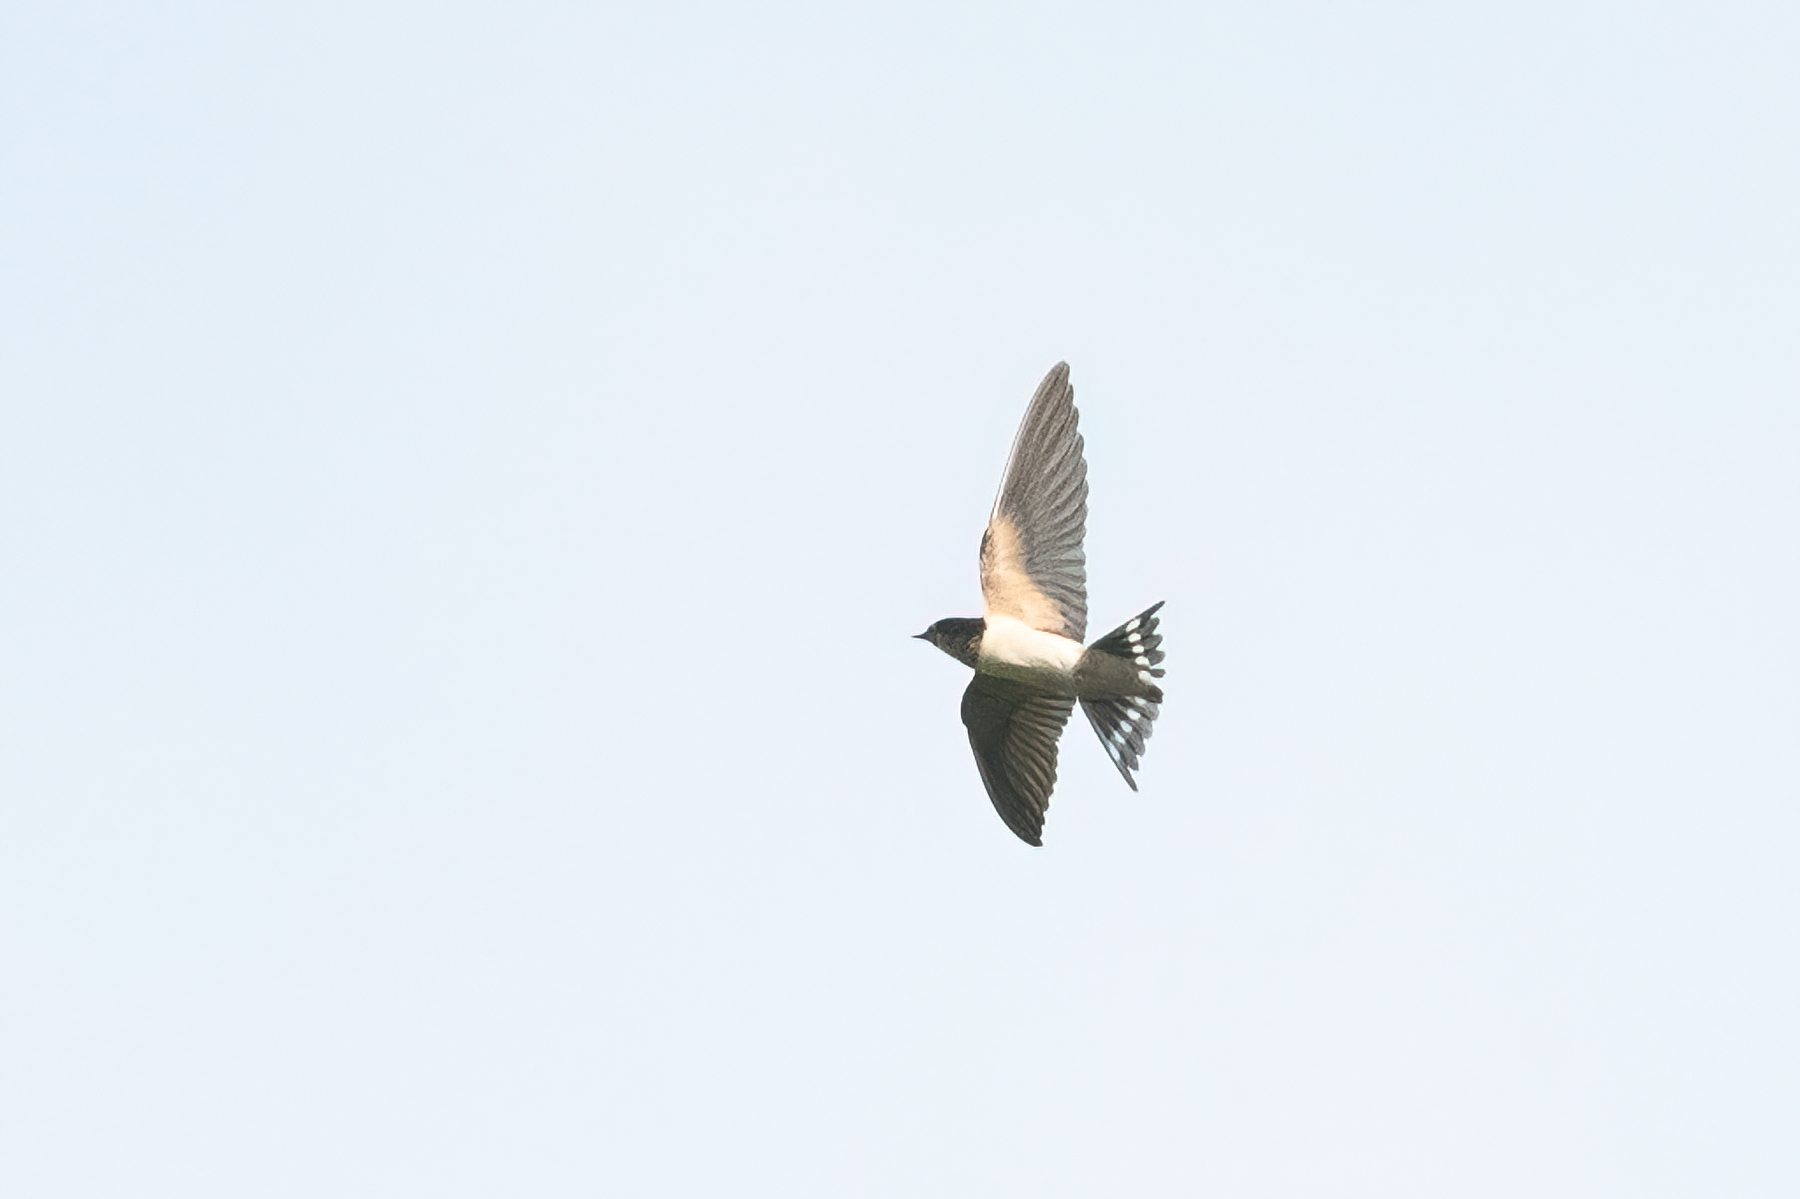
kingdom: Animalia
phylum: Chordata
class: Aves
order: Passeriformes
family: Hirundinidae
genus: Hirundo
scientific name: Hirundo rustica
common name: Barn swallow
